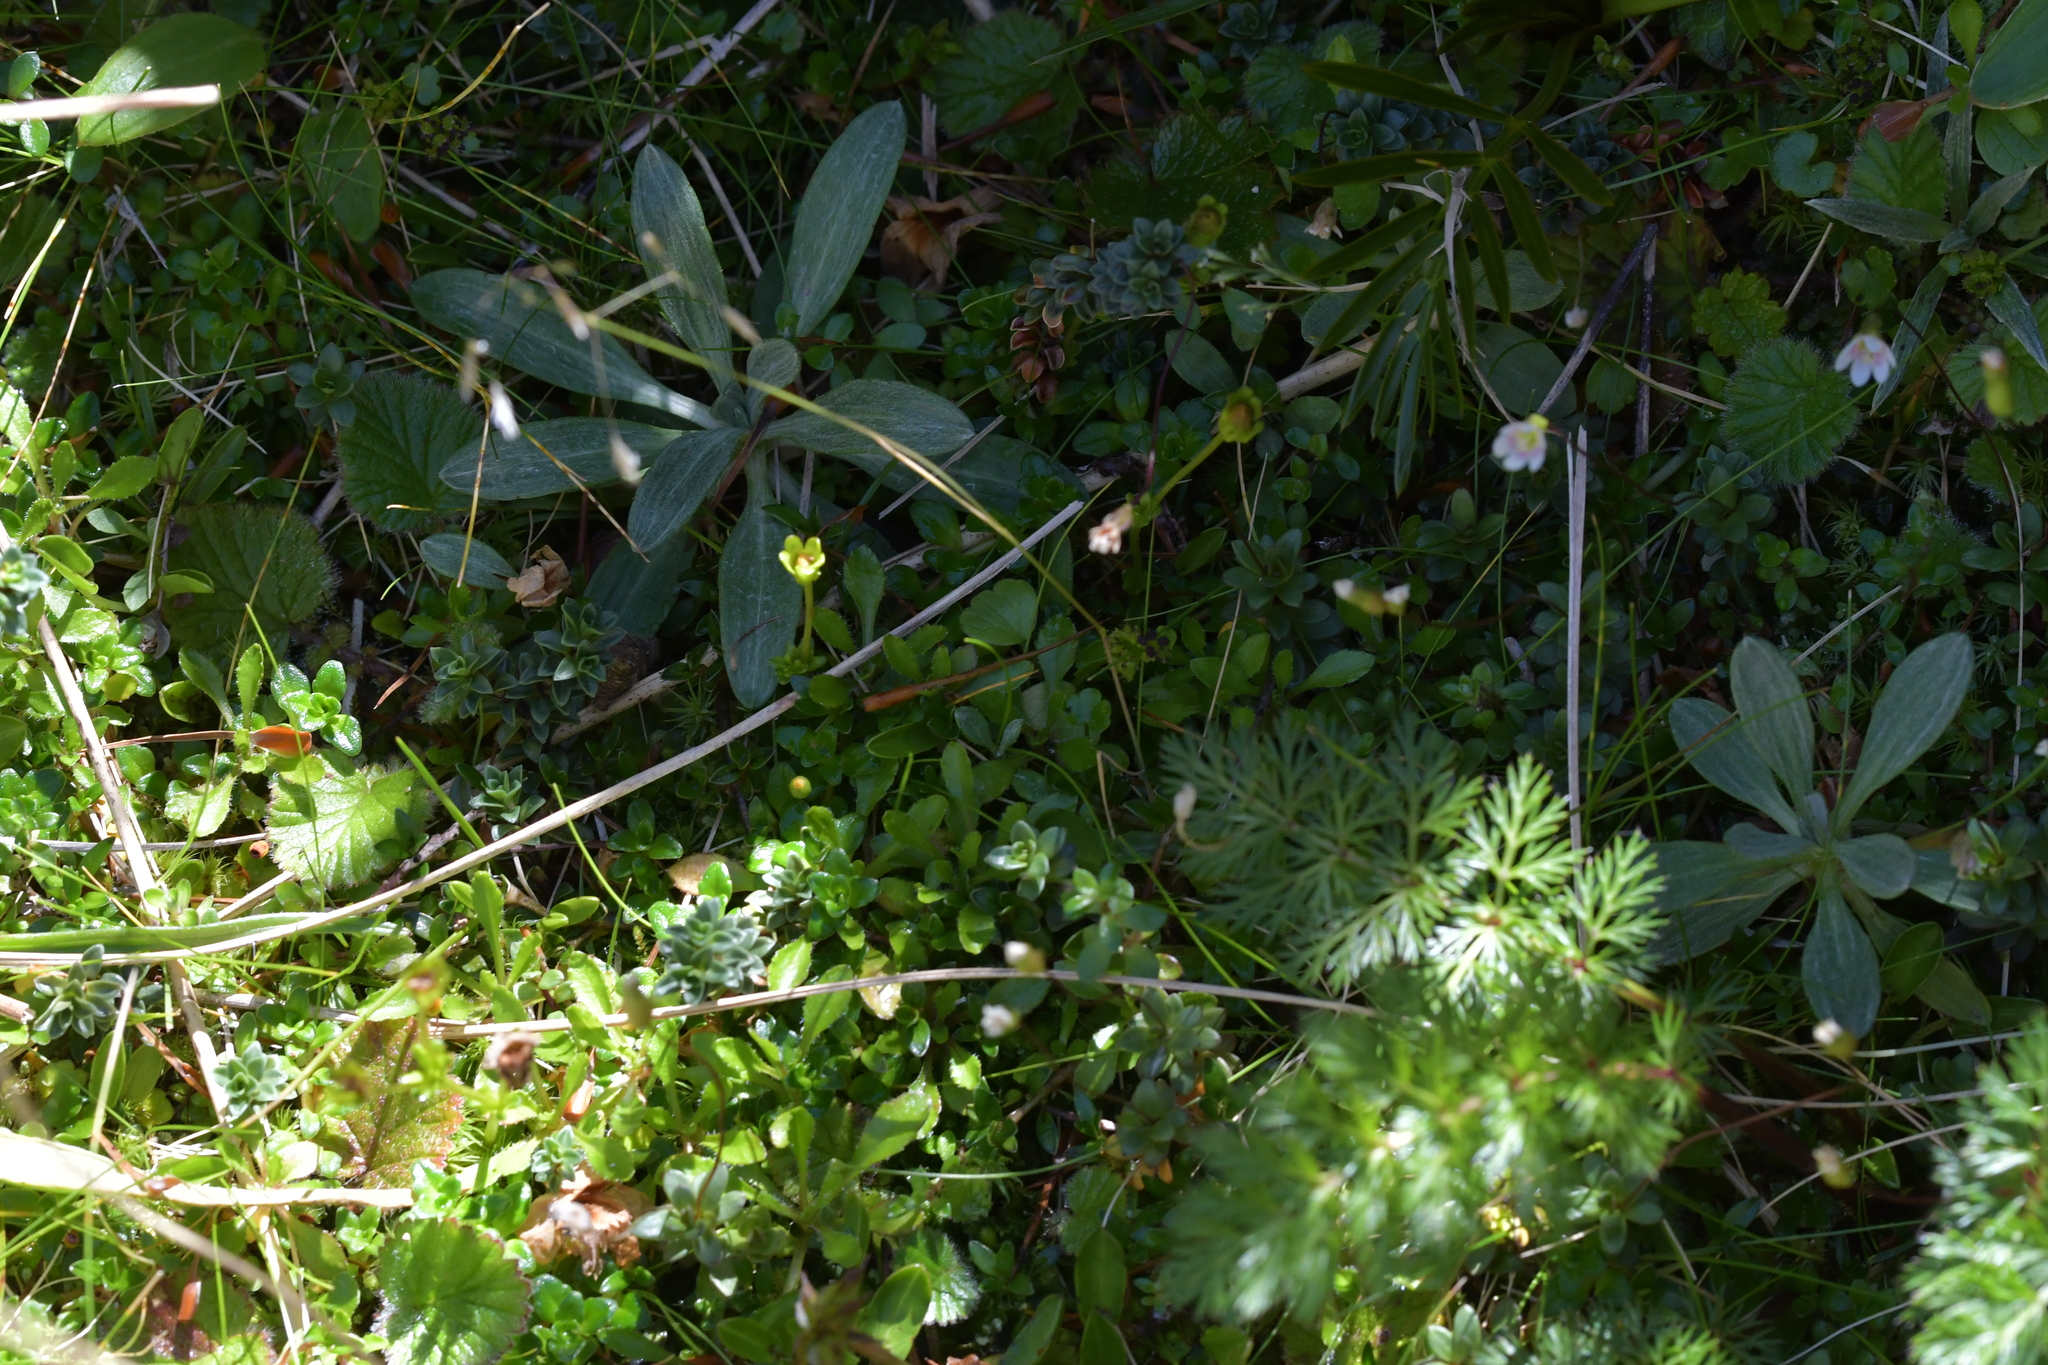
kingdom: Plantae
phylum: Tracheophyta
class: Magnoliopsida
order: Asterales
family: Stylidiaceae
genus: Forstera
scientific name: Forstera tenella
